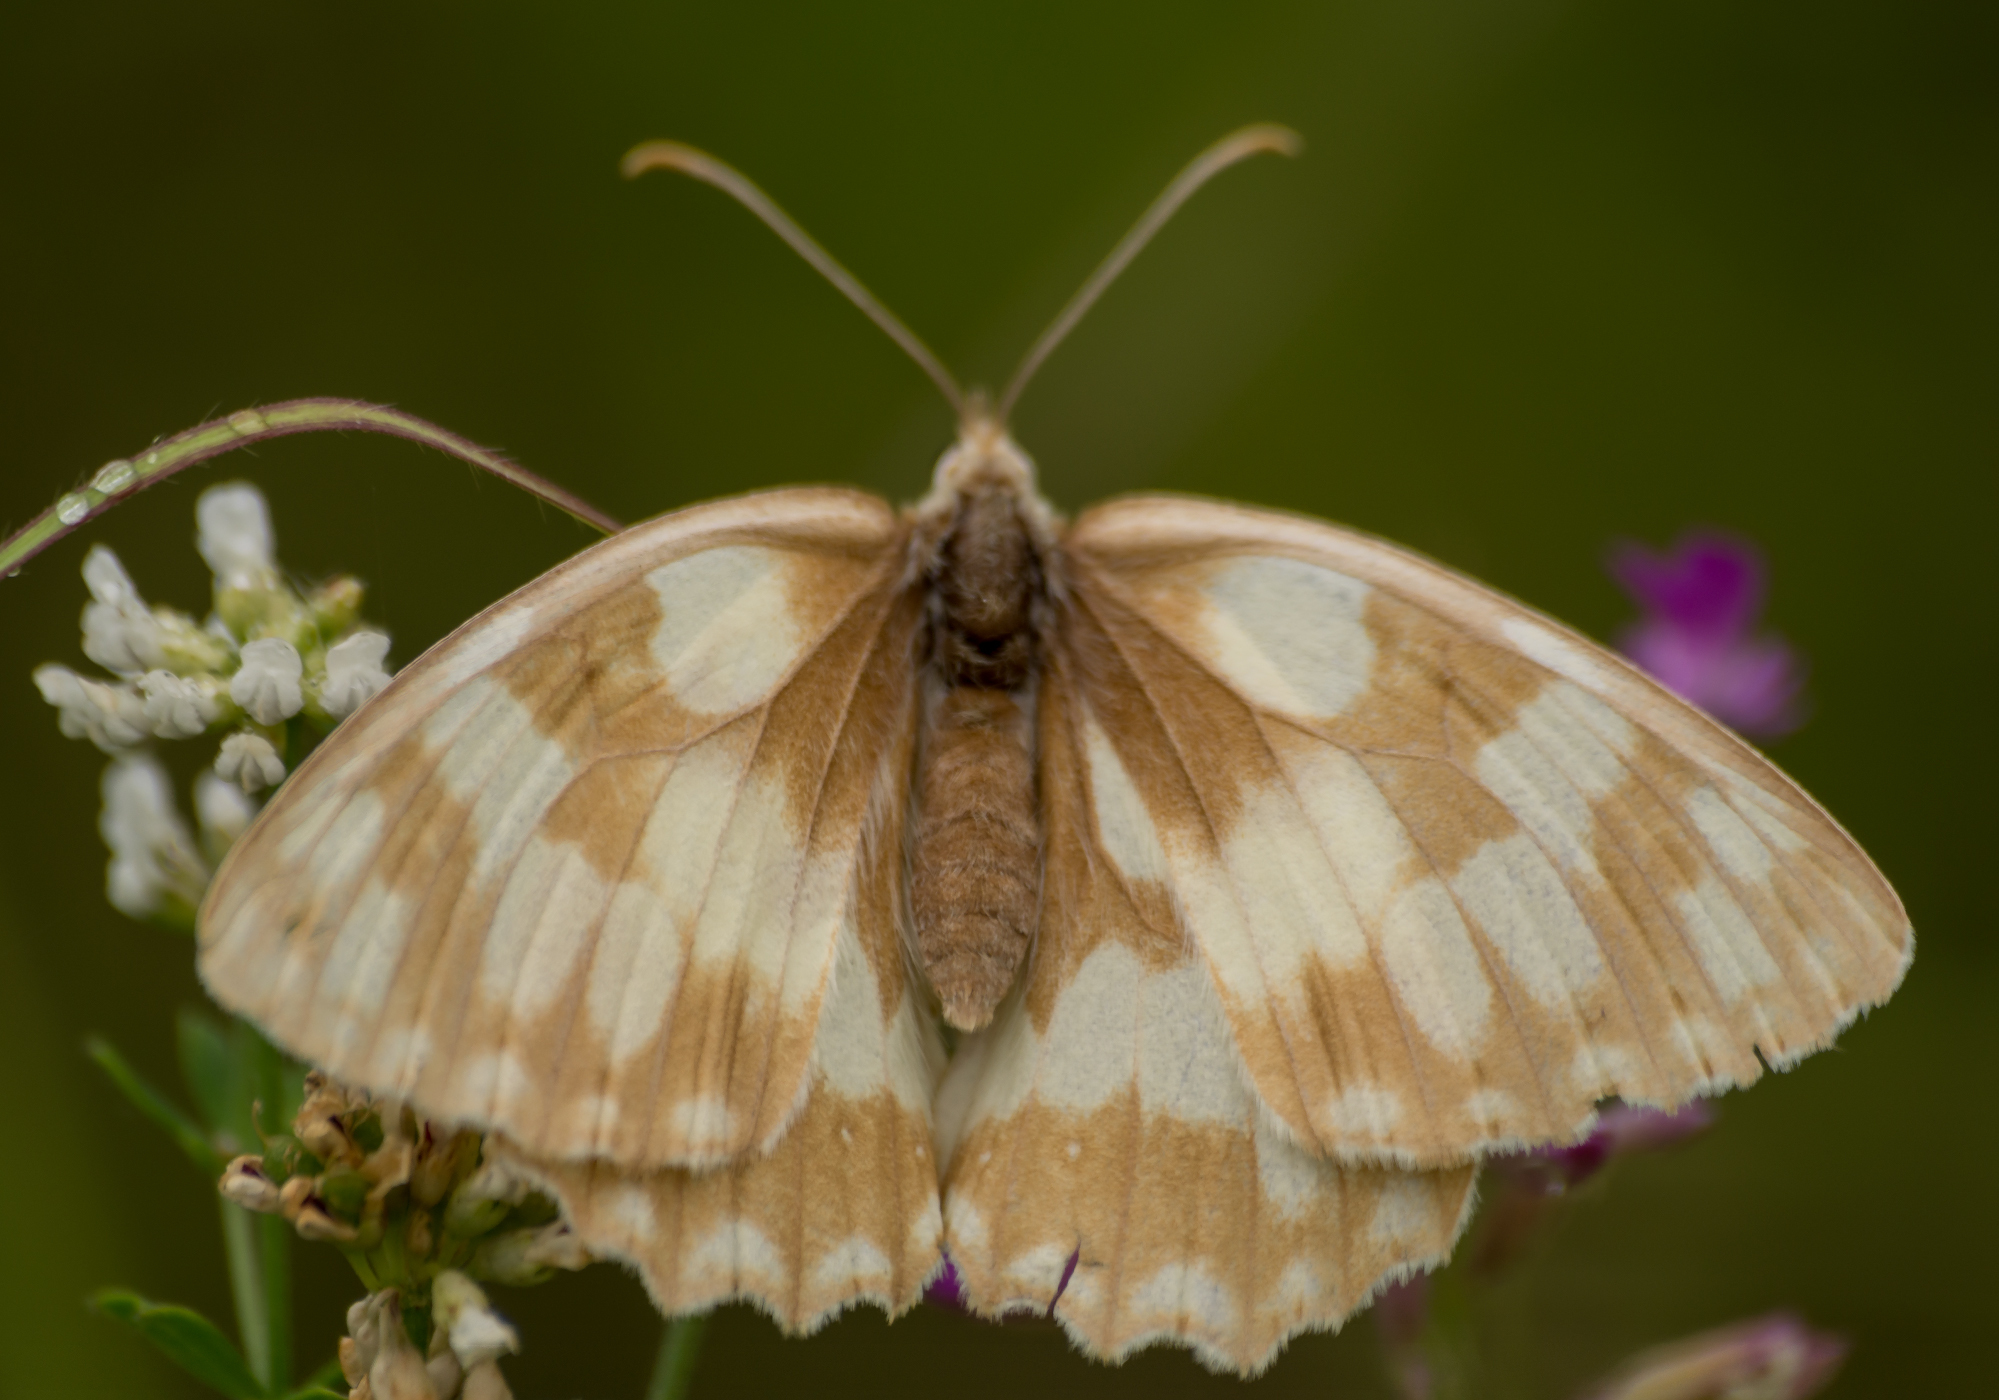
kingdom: Animalia
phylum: Arthropoda
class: Insecta
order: Lepidoptera
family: Nymphalidae
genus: Melanargia
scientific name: Melanargia galathea
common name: Marbled white
